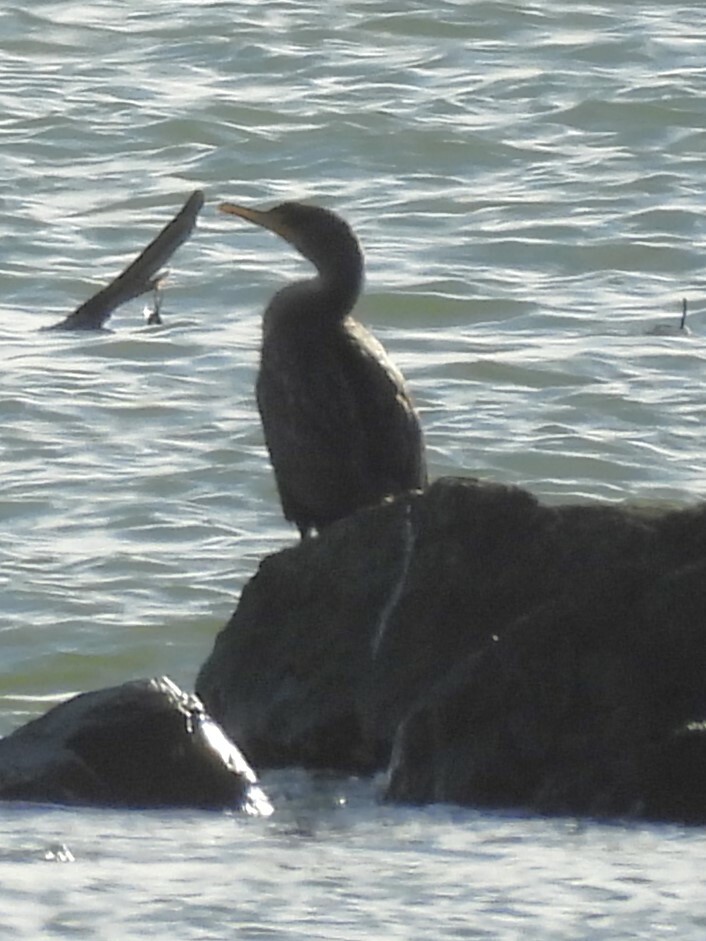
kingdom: Animalia
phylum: Chordata
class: Aves
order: Suliformes
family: Phalacrocoracidae
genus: Phalacrocorax
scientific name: Phalacrocorax auritus
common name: Double-crested cormorant
